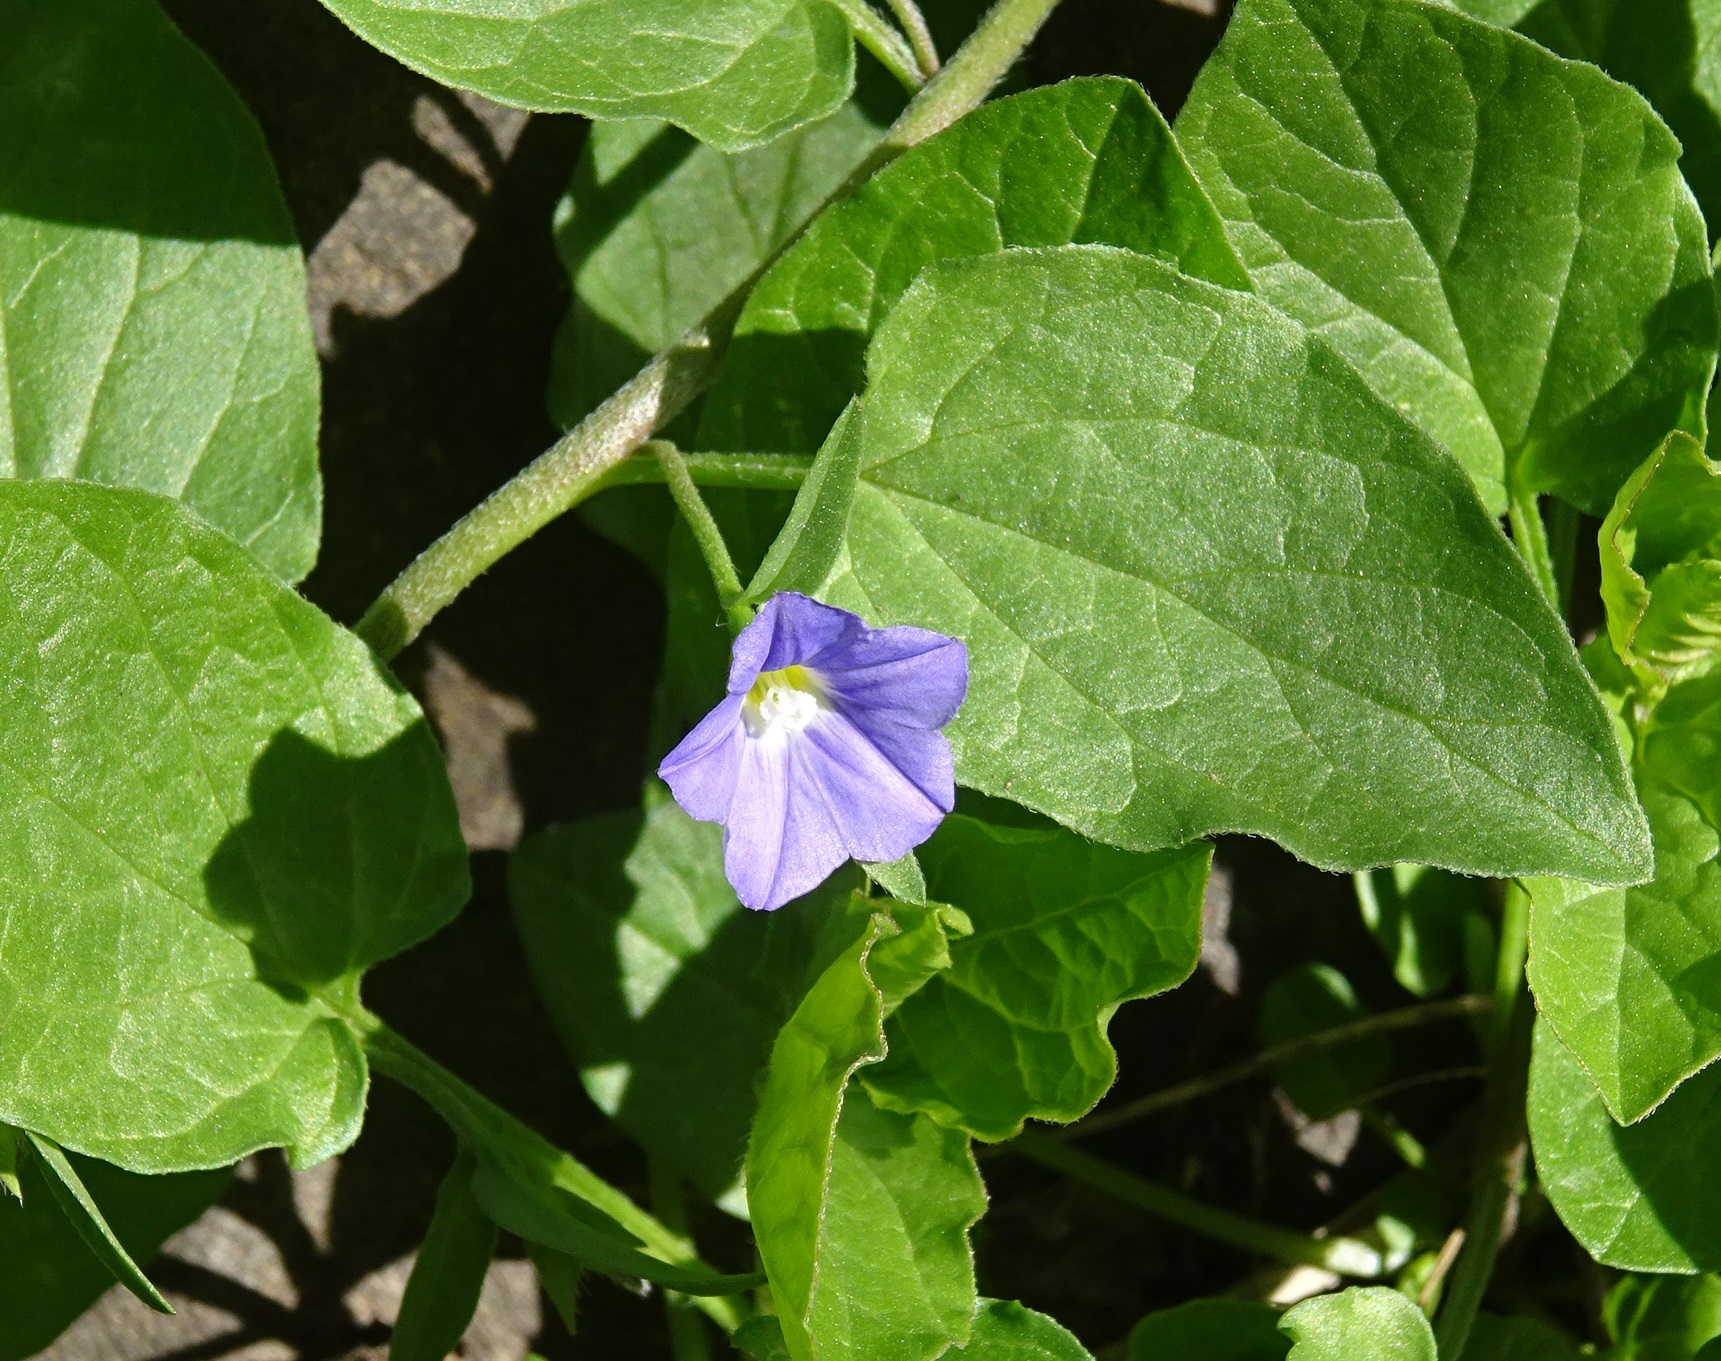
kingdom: Plantae
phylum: Tracheophyta
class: Magnoliopsida
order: Solanales
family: Convolvulaceae
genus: Convolvulus
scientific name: Convolvulus siculus
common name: Small blue-convolvulus
